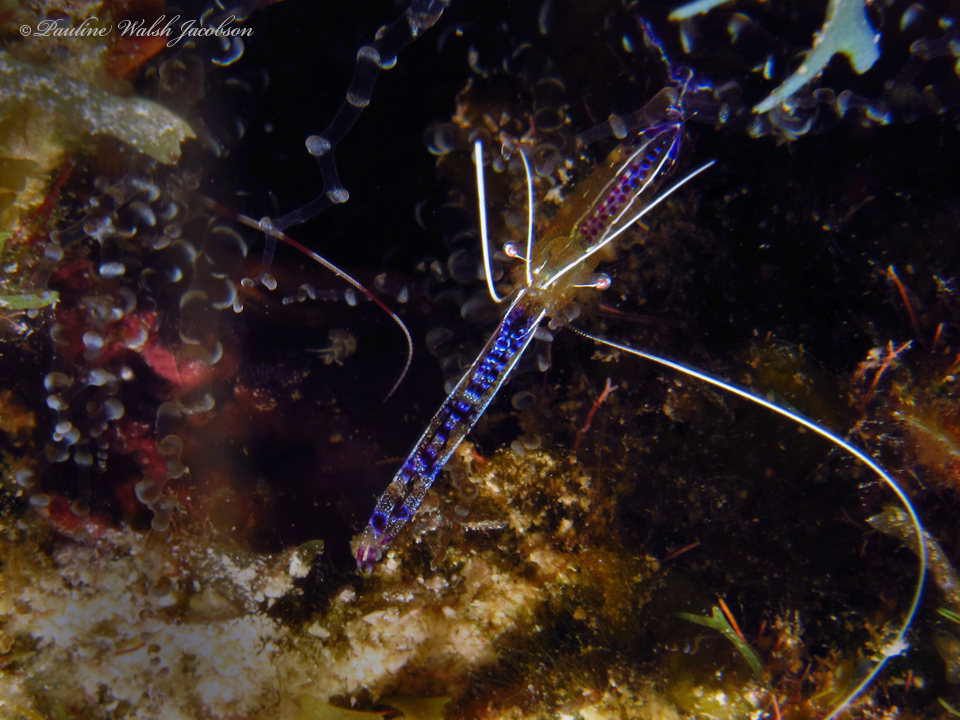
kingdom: Animalia
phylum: Arthropoda
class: Malacostraca
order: Decapoda
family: Palaemonidae
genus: Ancylomenes
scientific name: Ancylomenes pedersoni
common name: Pederson's cleaning shrimp
